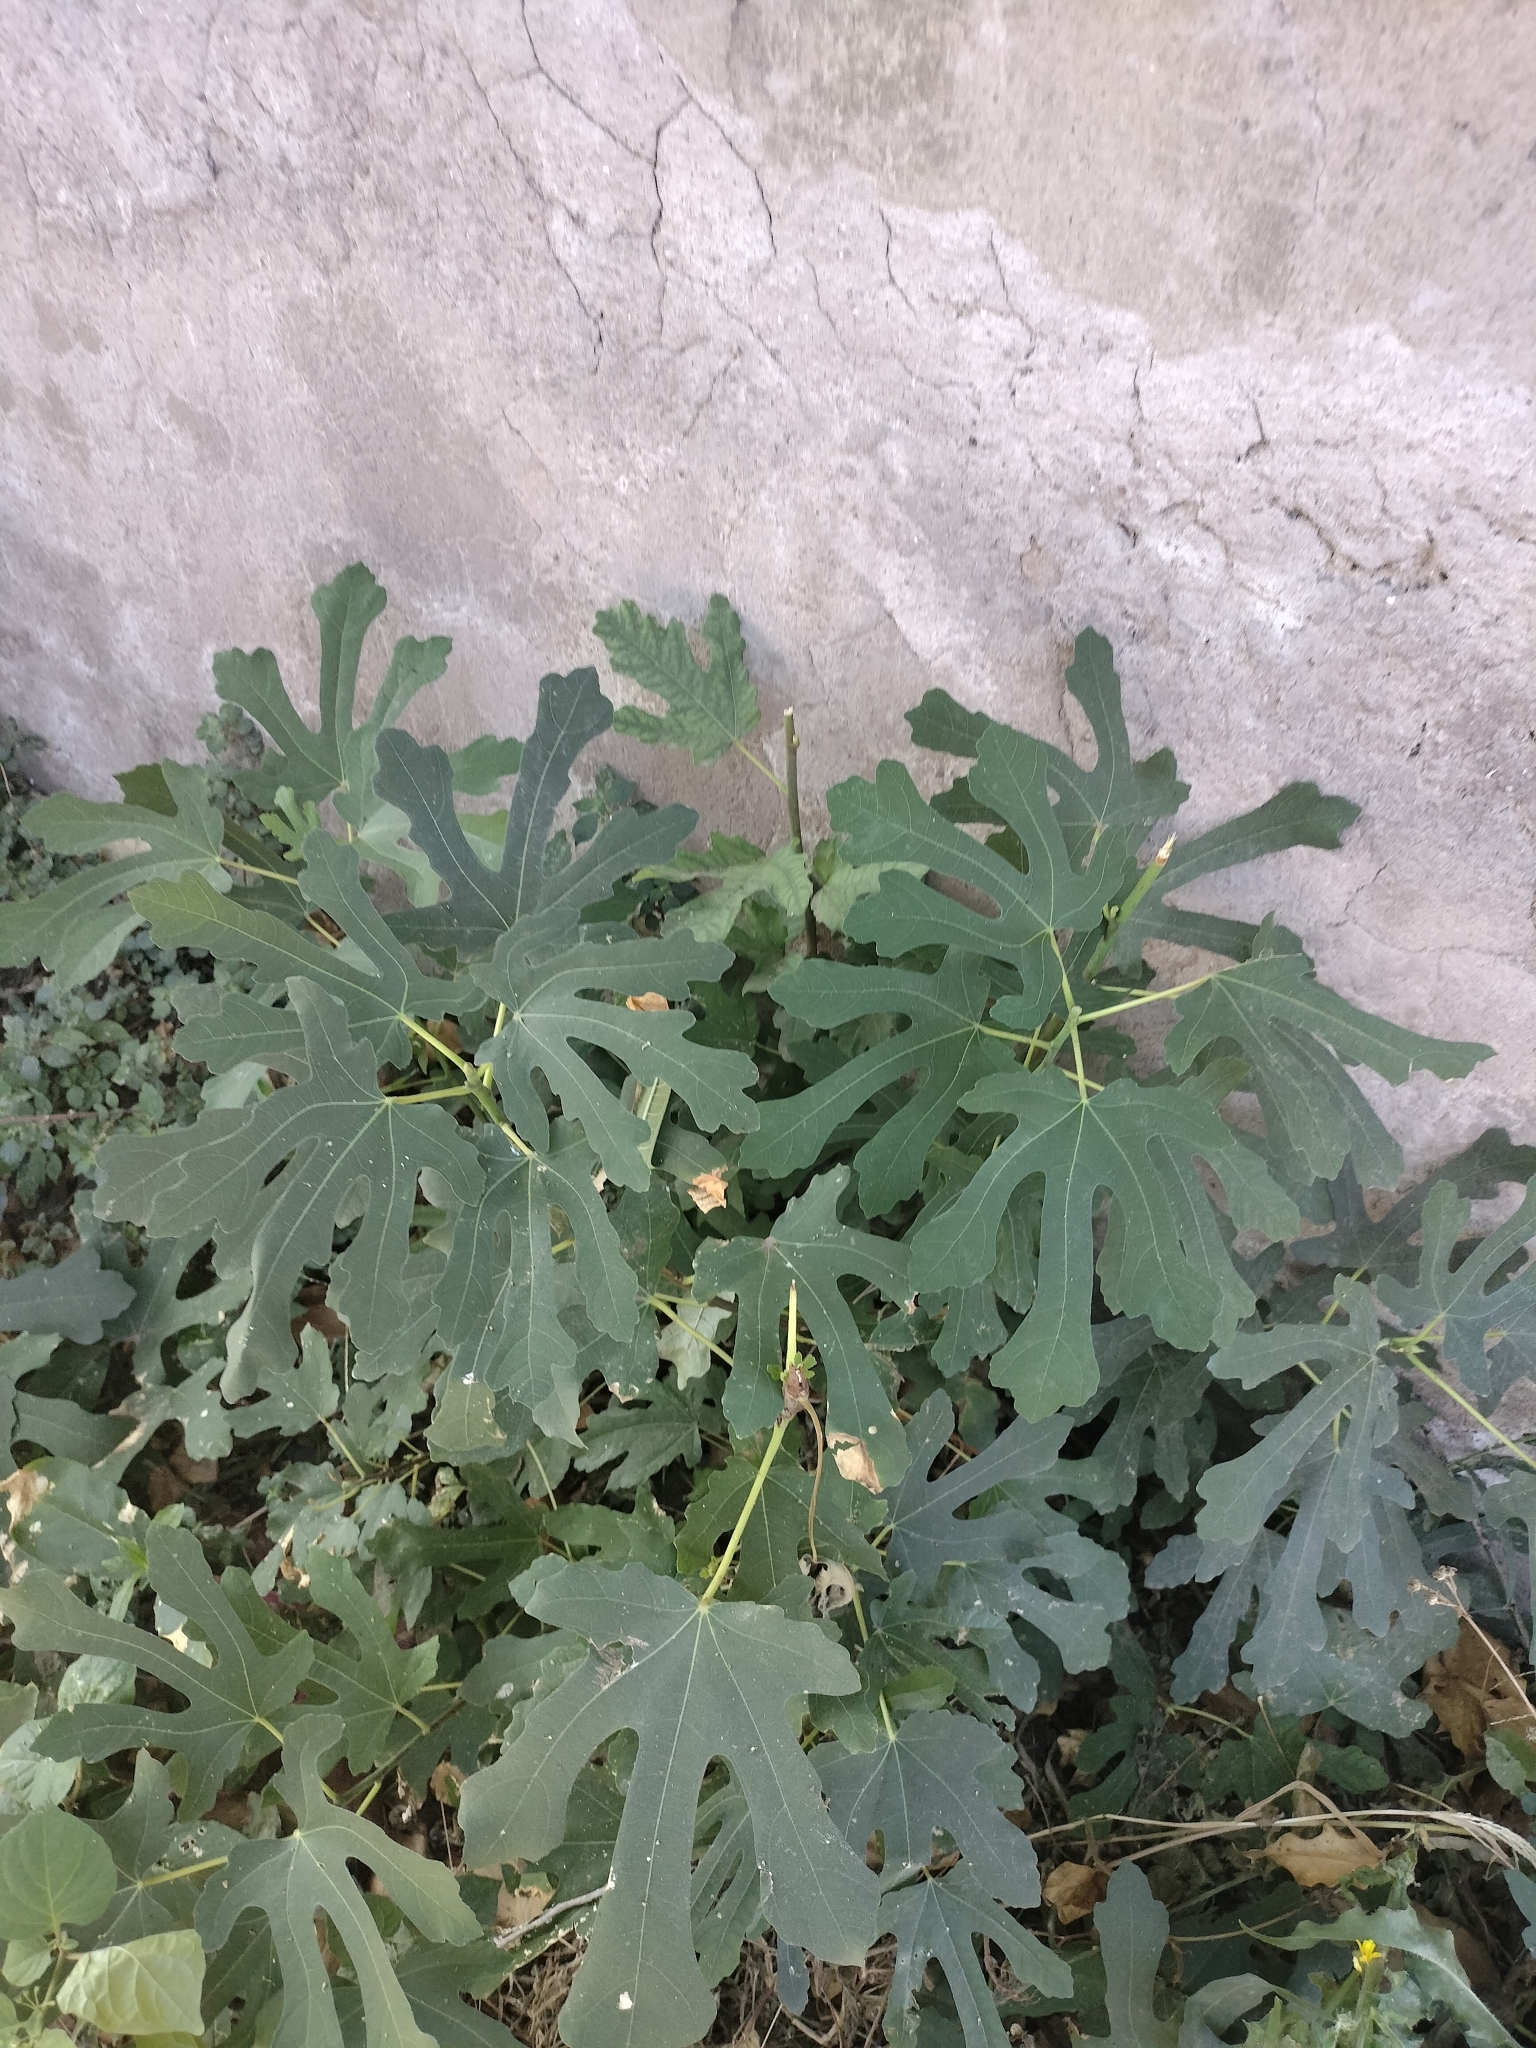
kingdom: Plantae
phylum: Tracheophyta
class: Magnoliopsida
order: Rosales
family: Moraceae
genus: Ficus
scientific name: Ficus carica
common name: Fig
